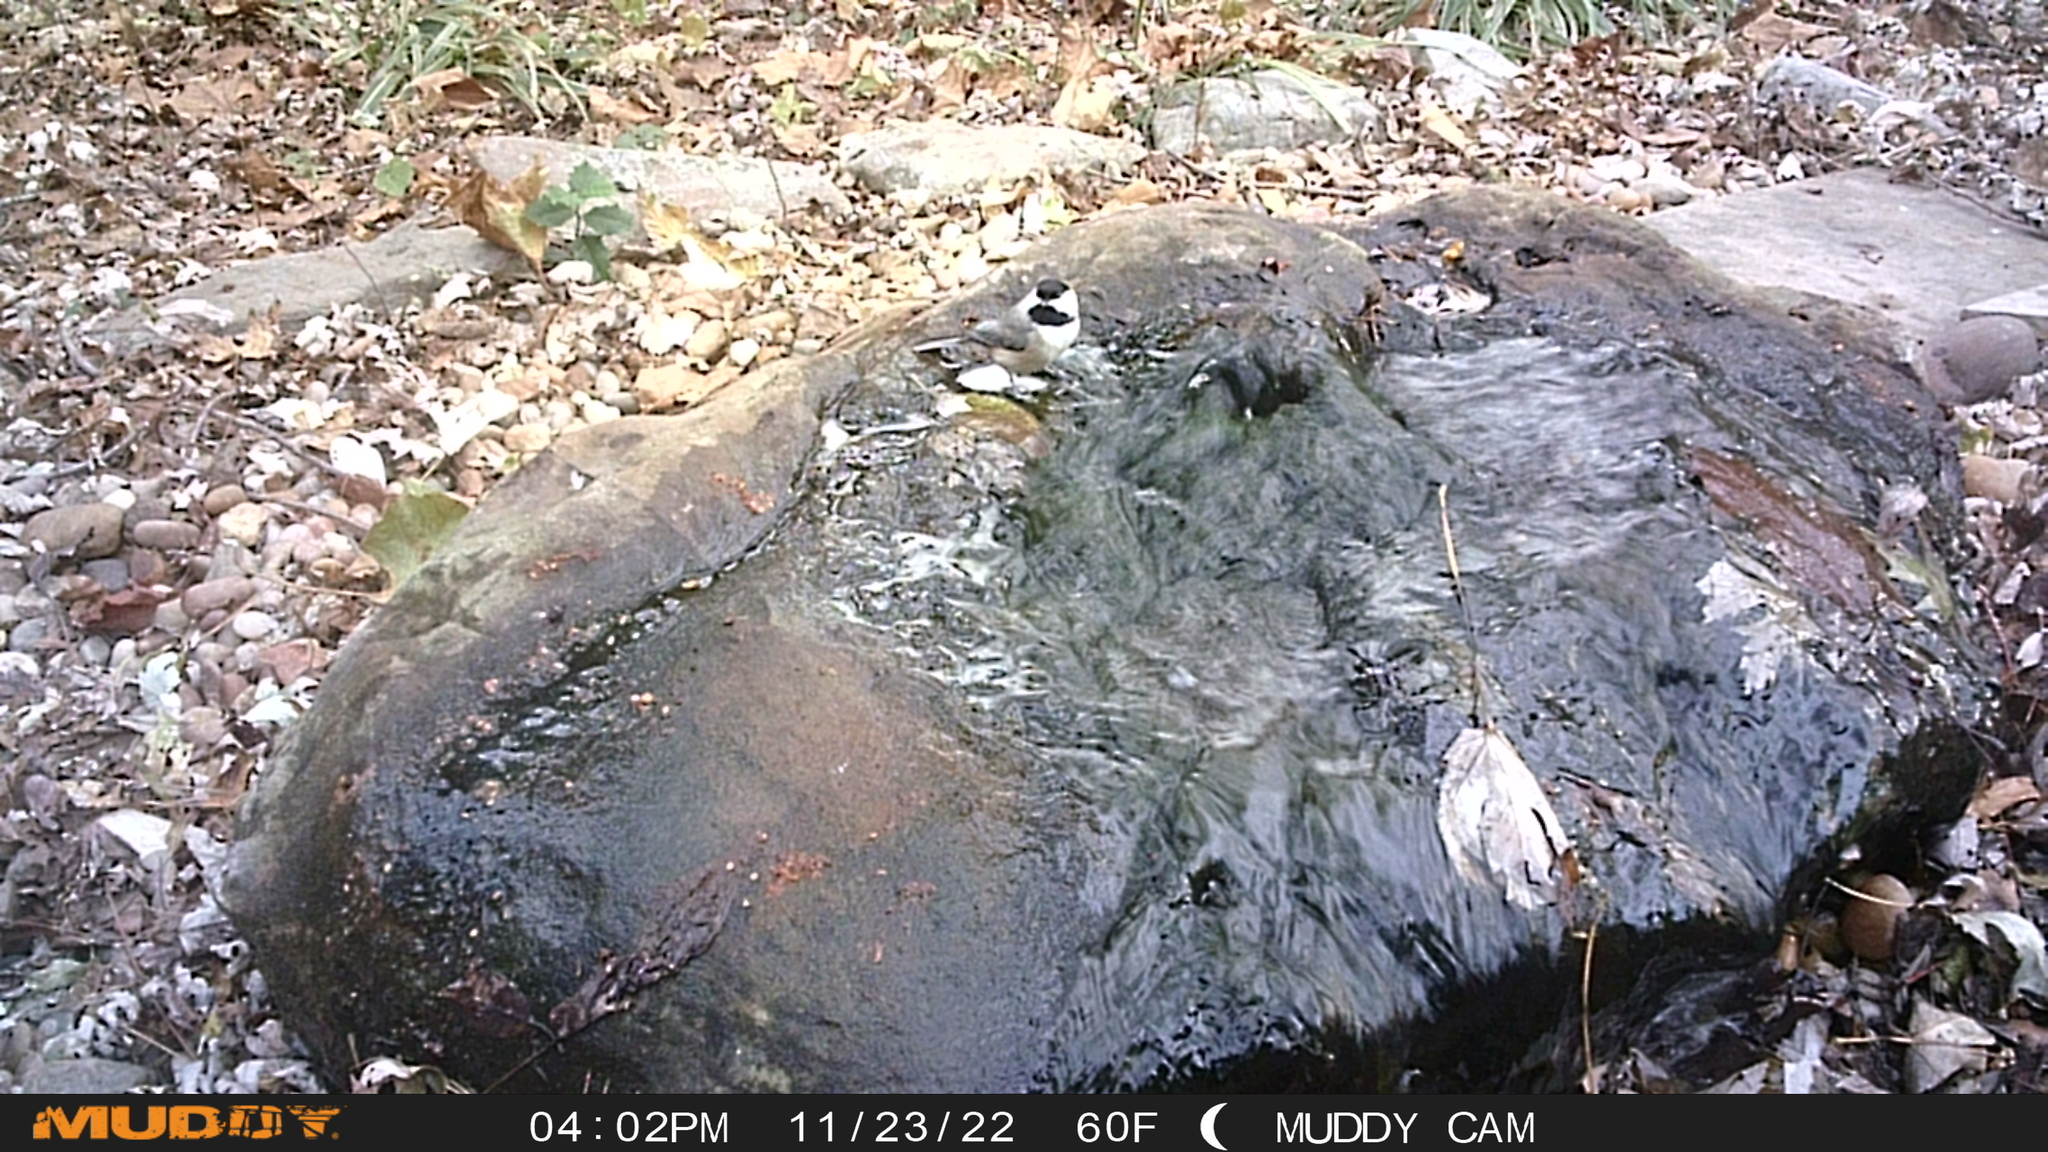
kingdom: Animalia
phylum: Chordata
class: Aves
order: Passeriformes
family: Paridae
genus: Poecile
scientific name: Poecile carolinensis
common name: Carolina chickadee
